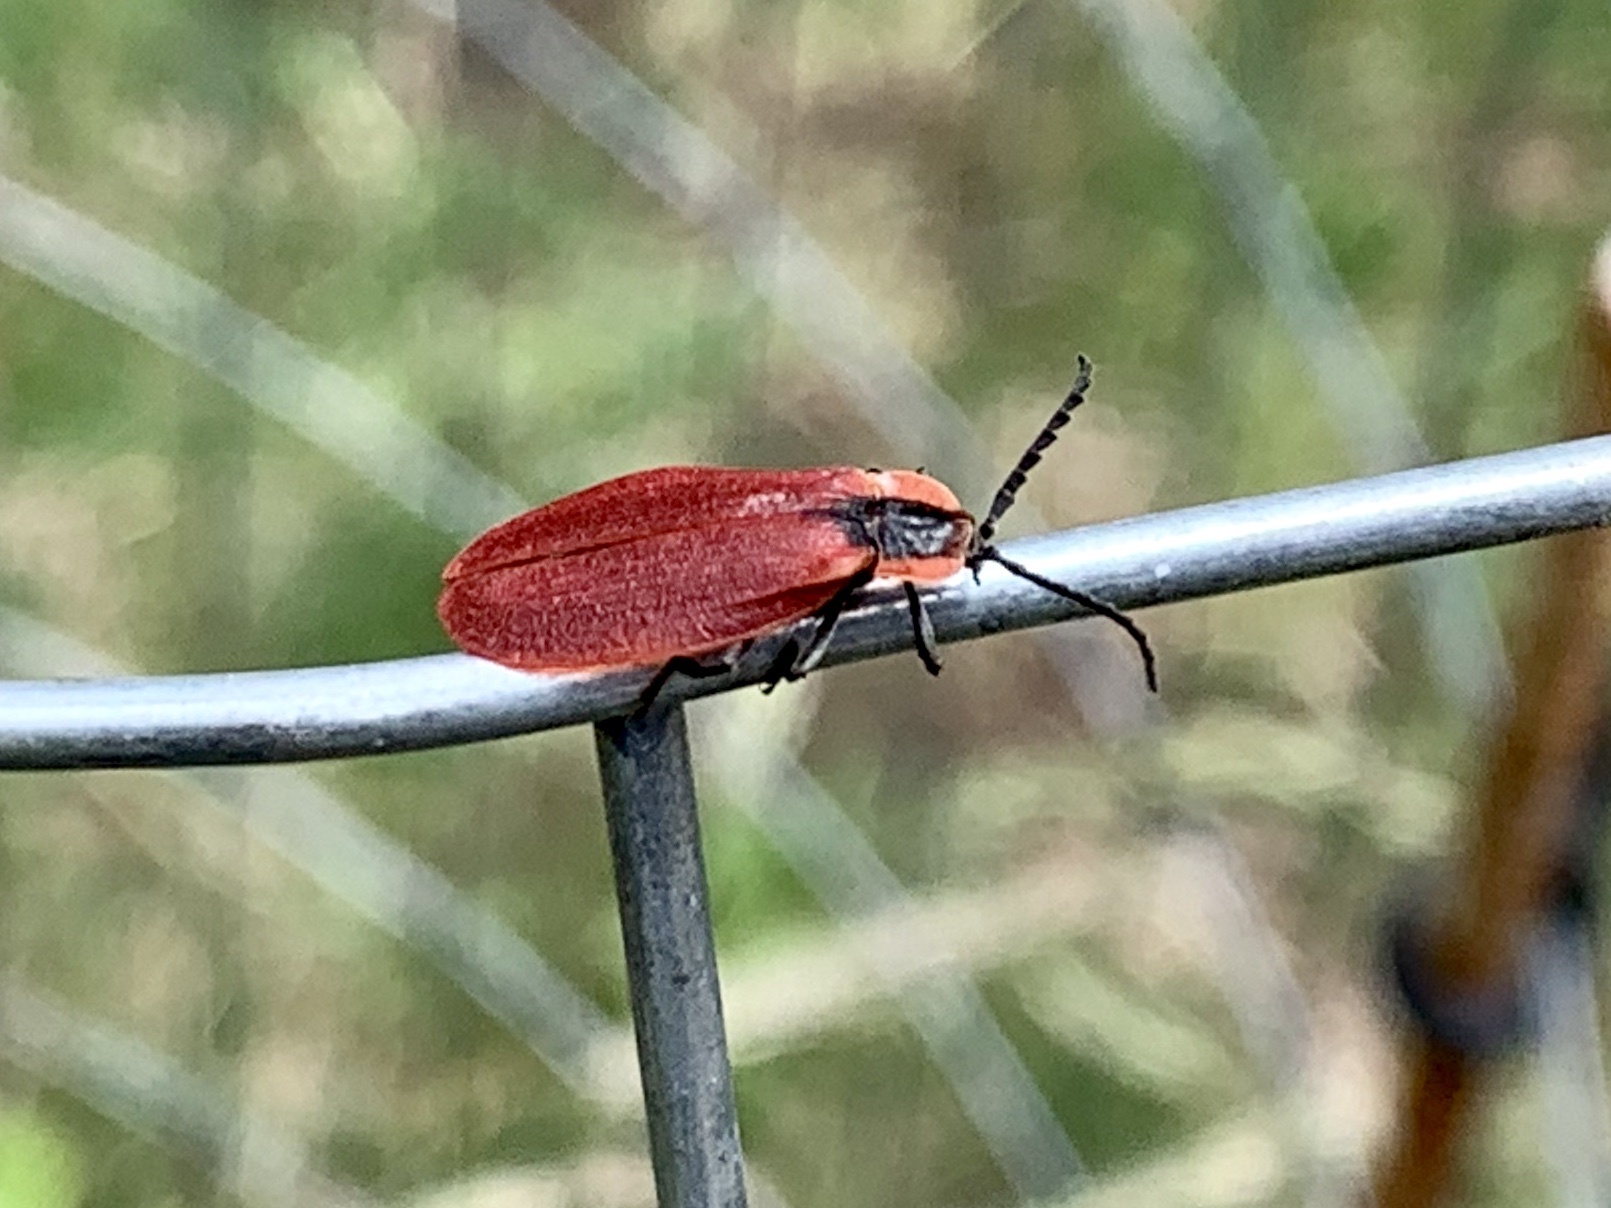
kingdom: Animalia
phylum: Arthropoda
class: Insecta
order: Coleoptera
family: Lycidae
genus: Lycus
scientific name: Lycus sanguinipennis
